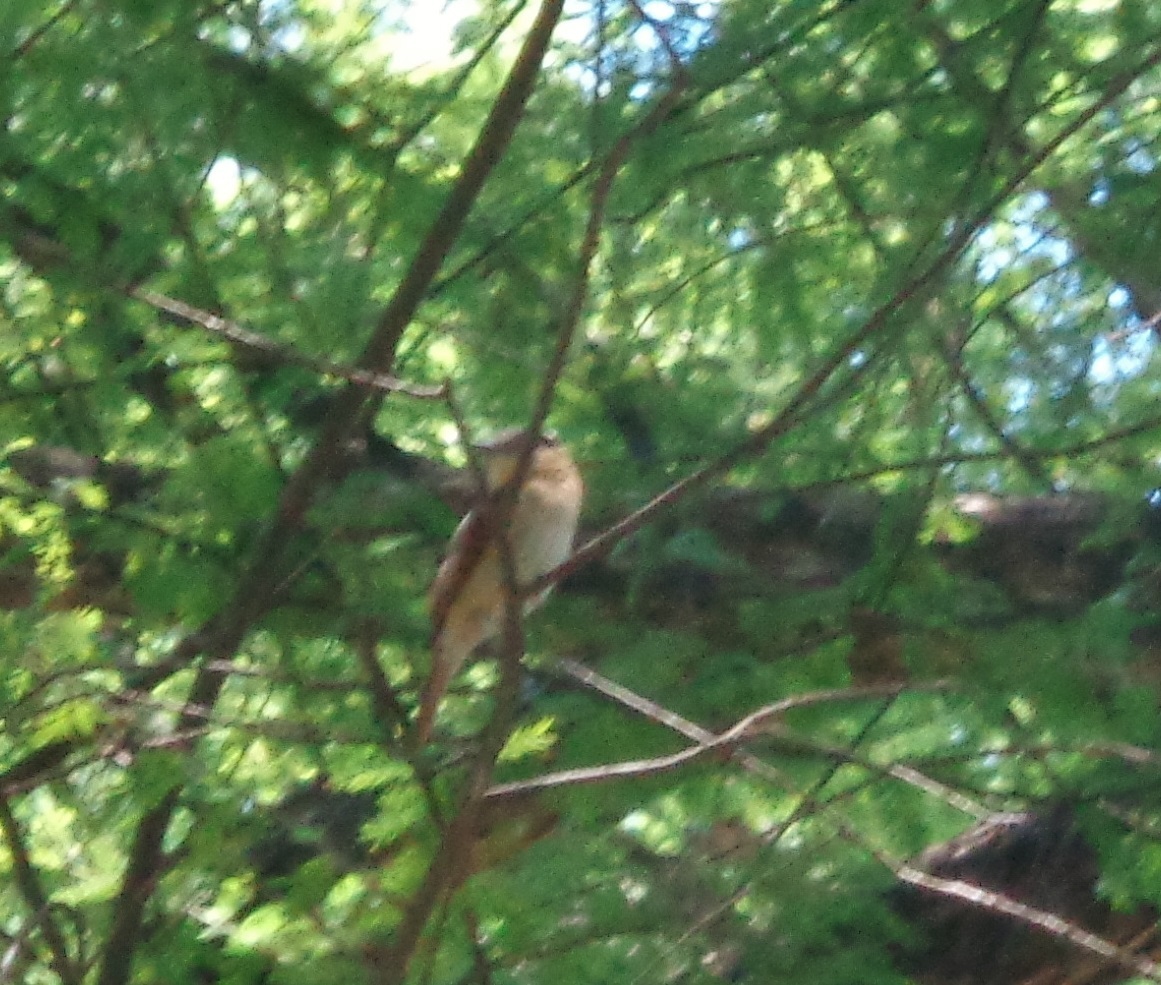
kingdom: Animalia
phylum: Chordata
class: Aves
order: Passeriformes
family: Cotingidae
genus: Pachyramphus
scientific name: Pachyramphus aglaiae
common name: Rose-throated becard
